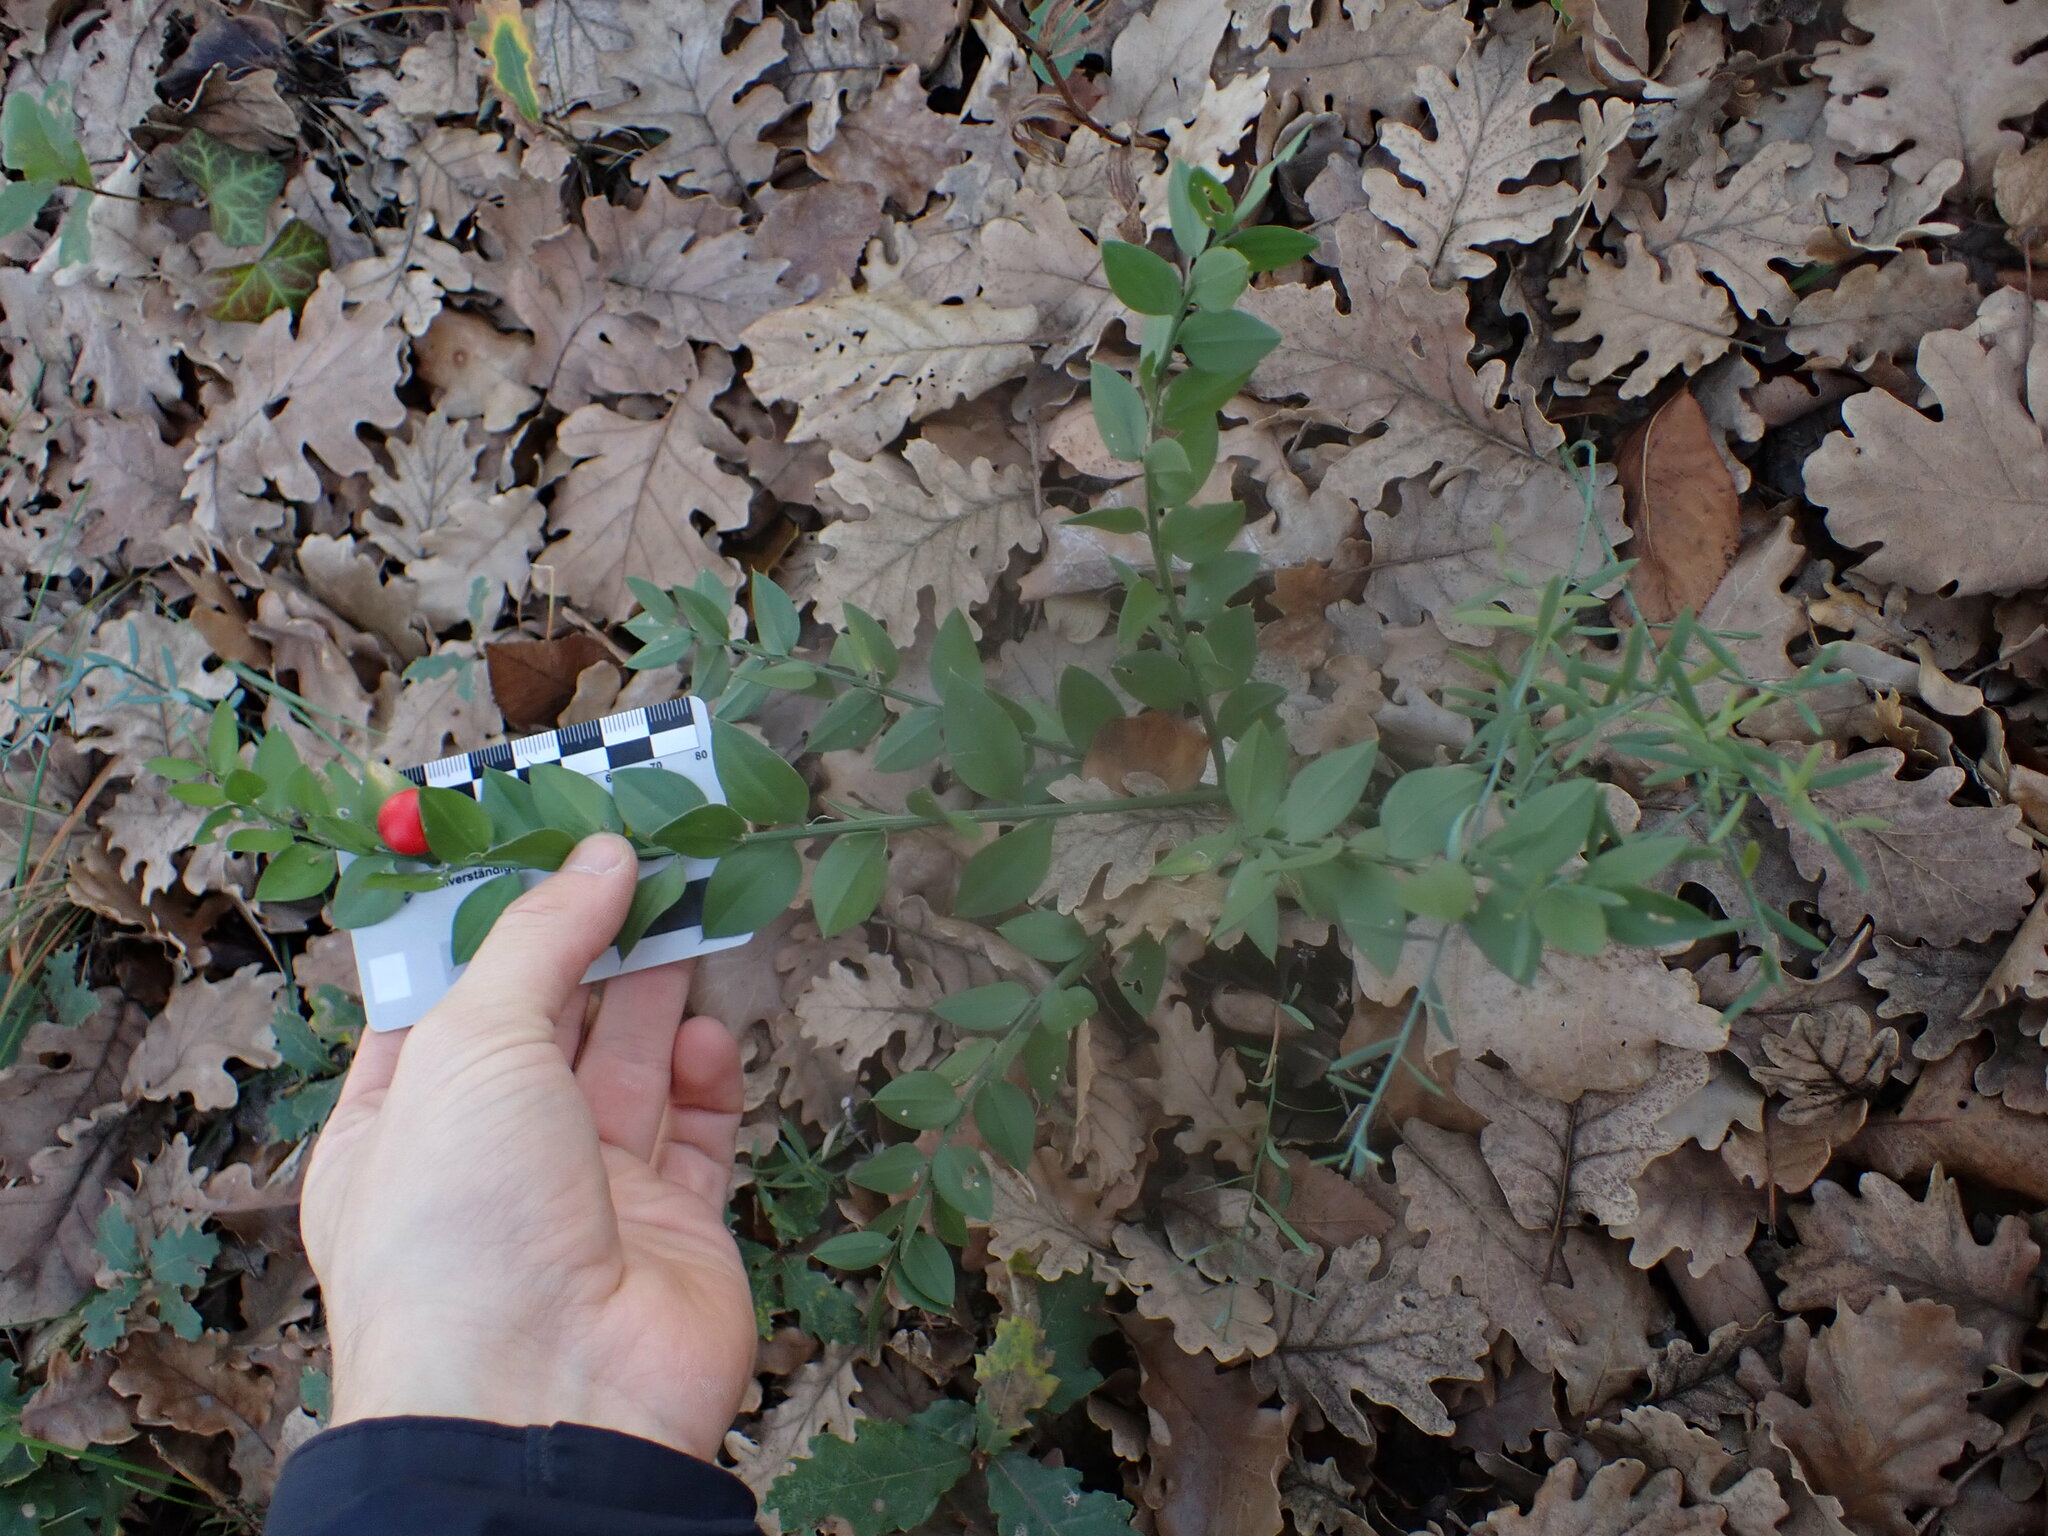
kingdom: Plantae
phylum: Tracheophyta
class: Liliopsida
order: Asparagales
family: Asparagaceae
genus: Ruscus
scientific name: Ruscus aculeatus
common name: Butcher's-broom
